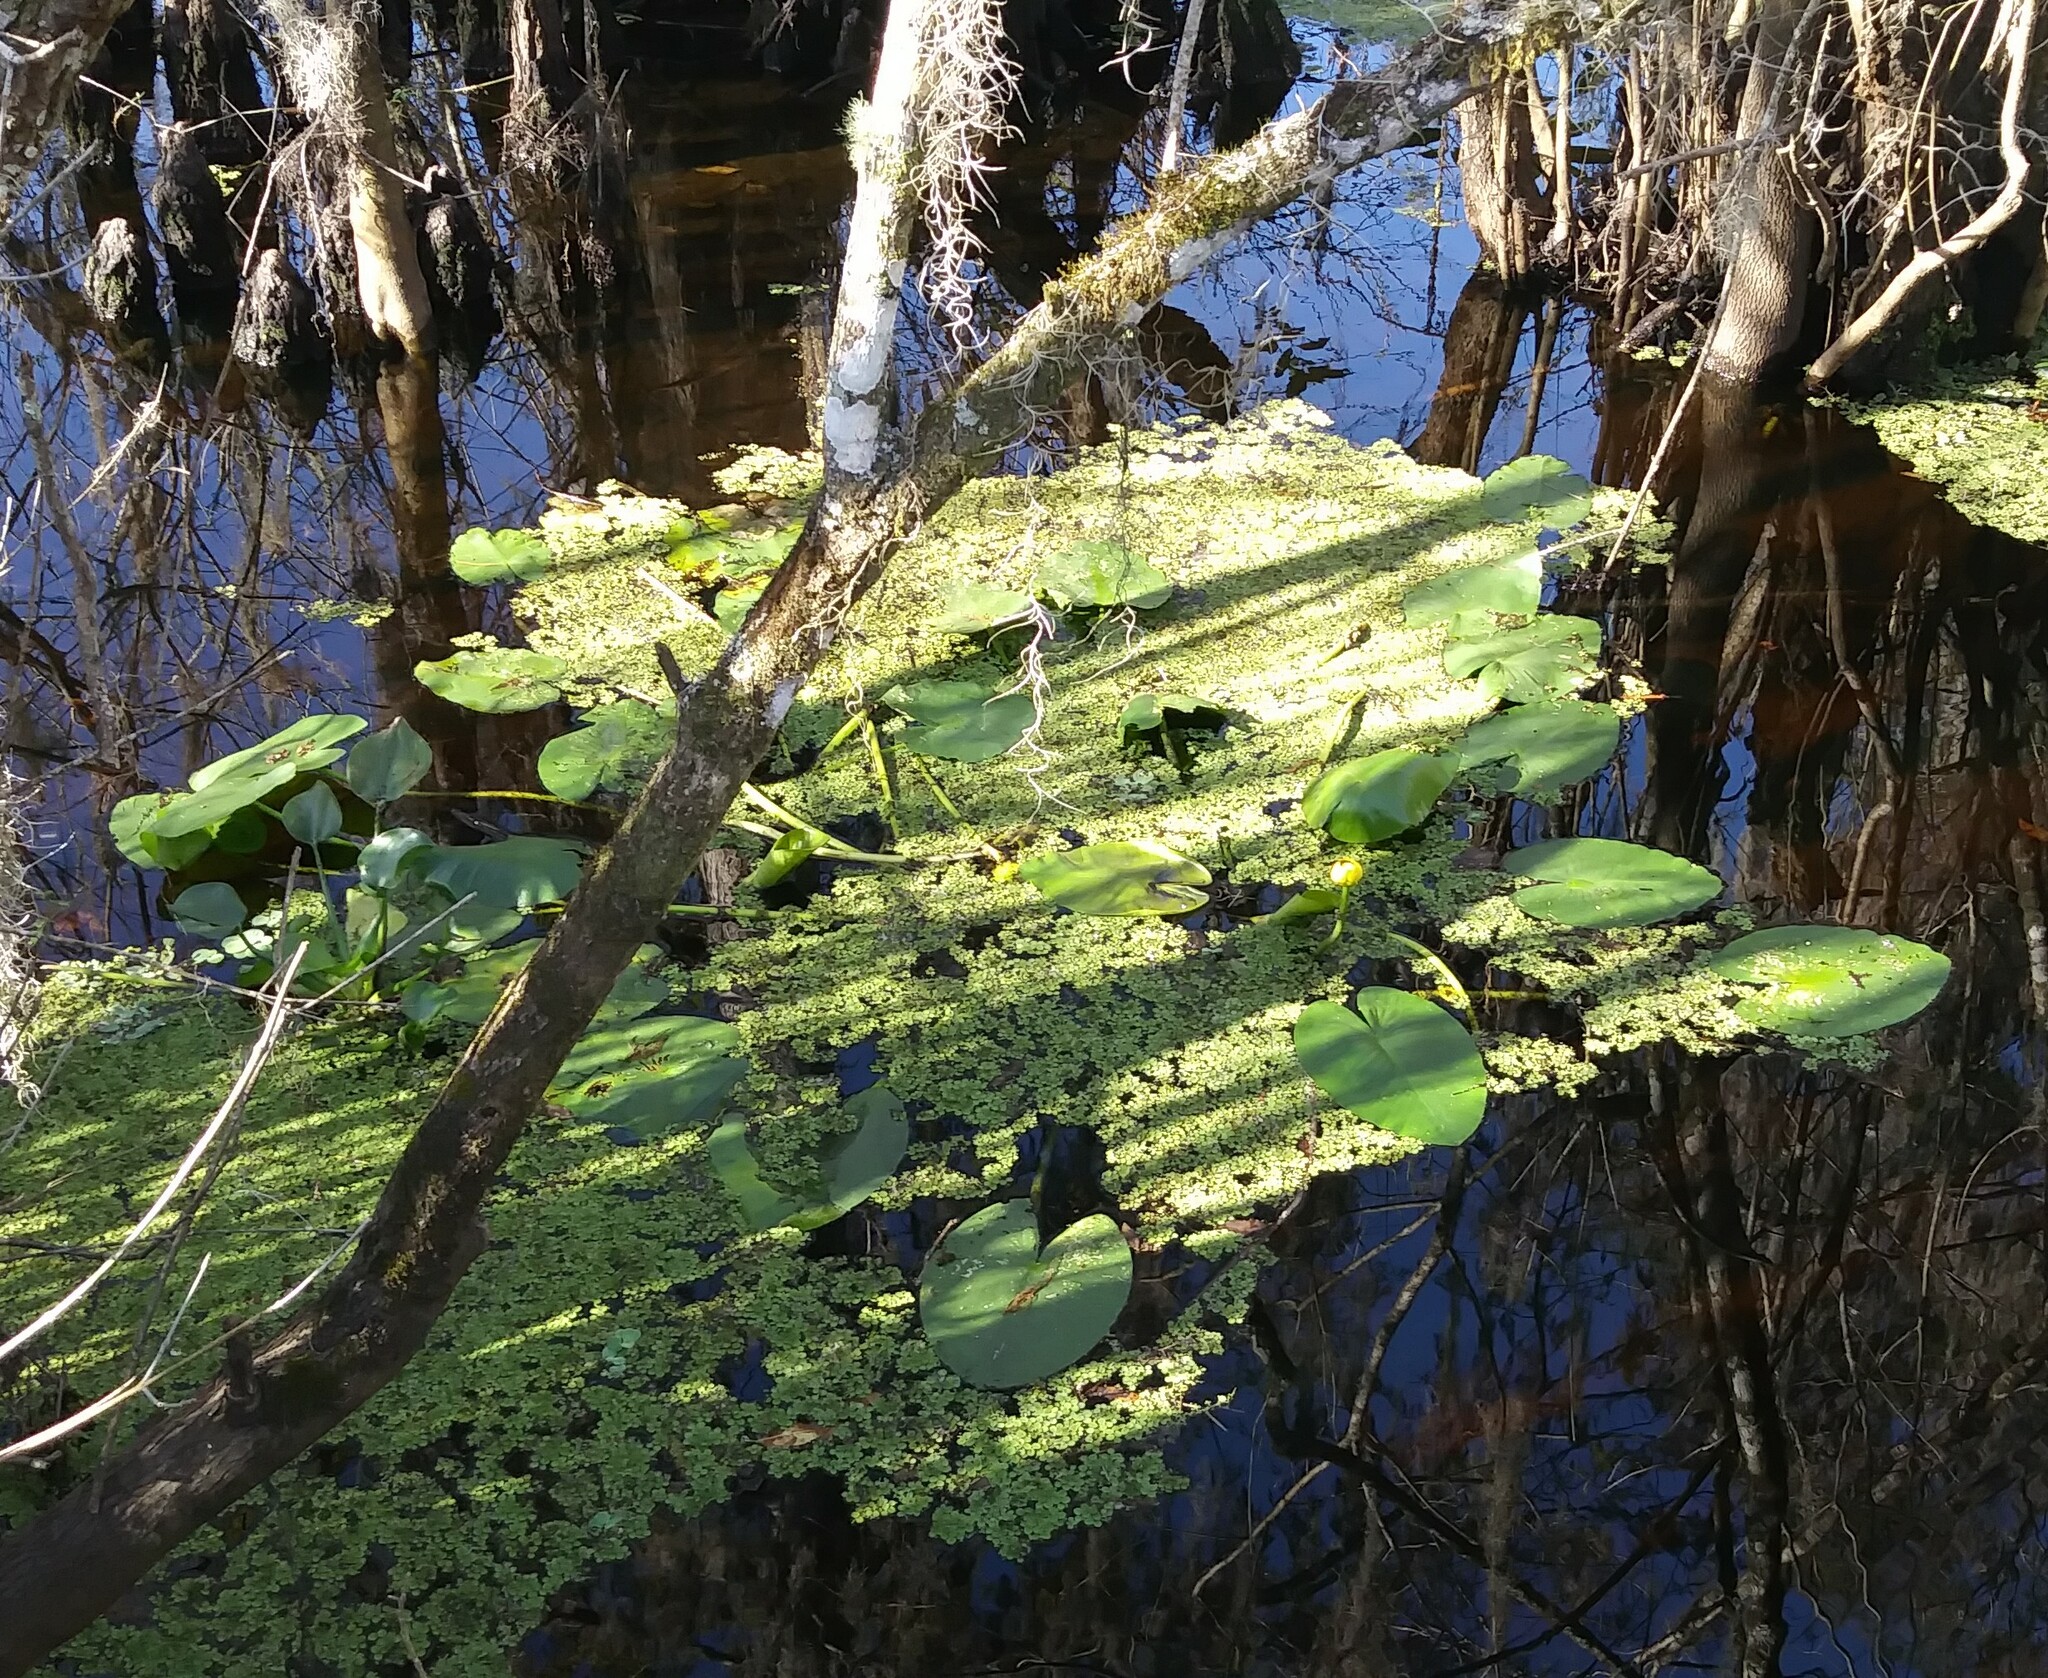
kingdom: Plantae
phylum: Tracheophyta
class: Magnoliopsida
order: Nymphaeales
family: Nymphaeaceae
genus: Nuphar
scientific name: Nuphar advena
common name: Spatter-dock
